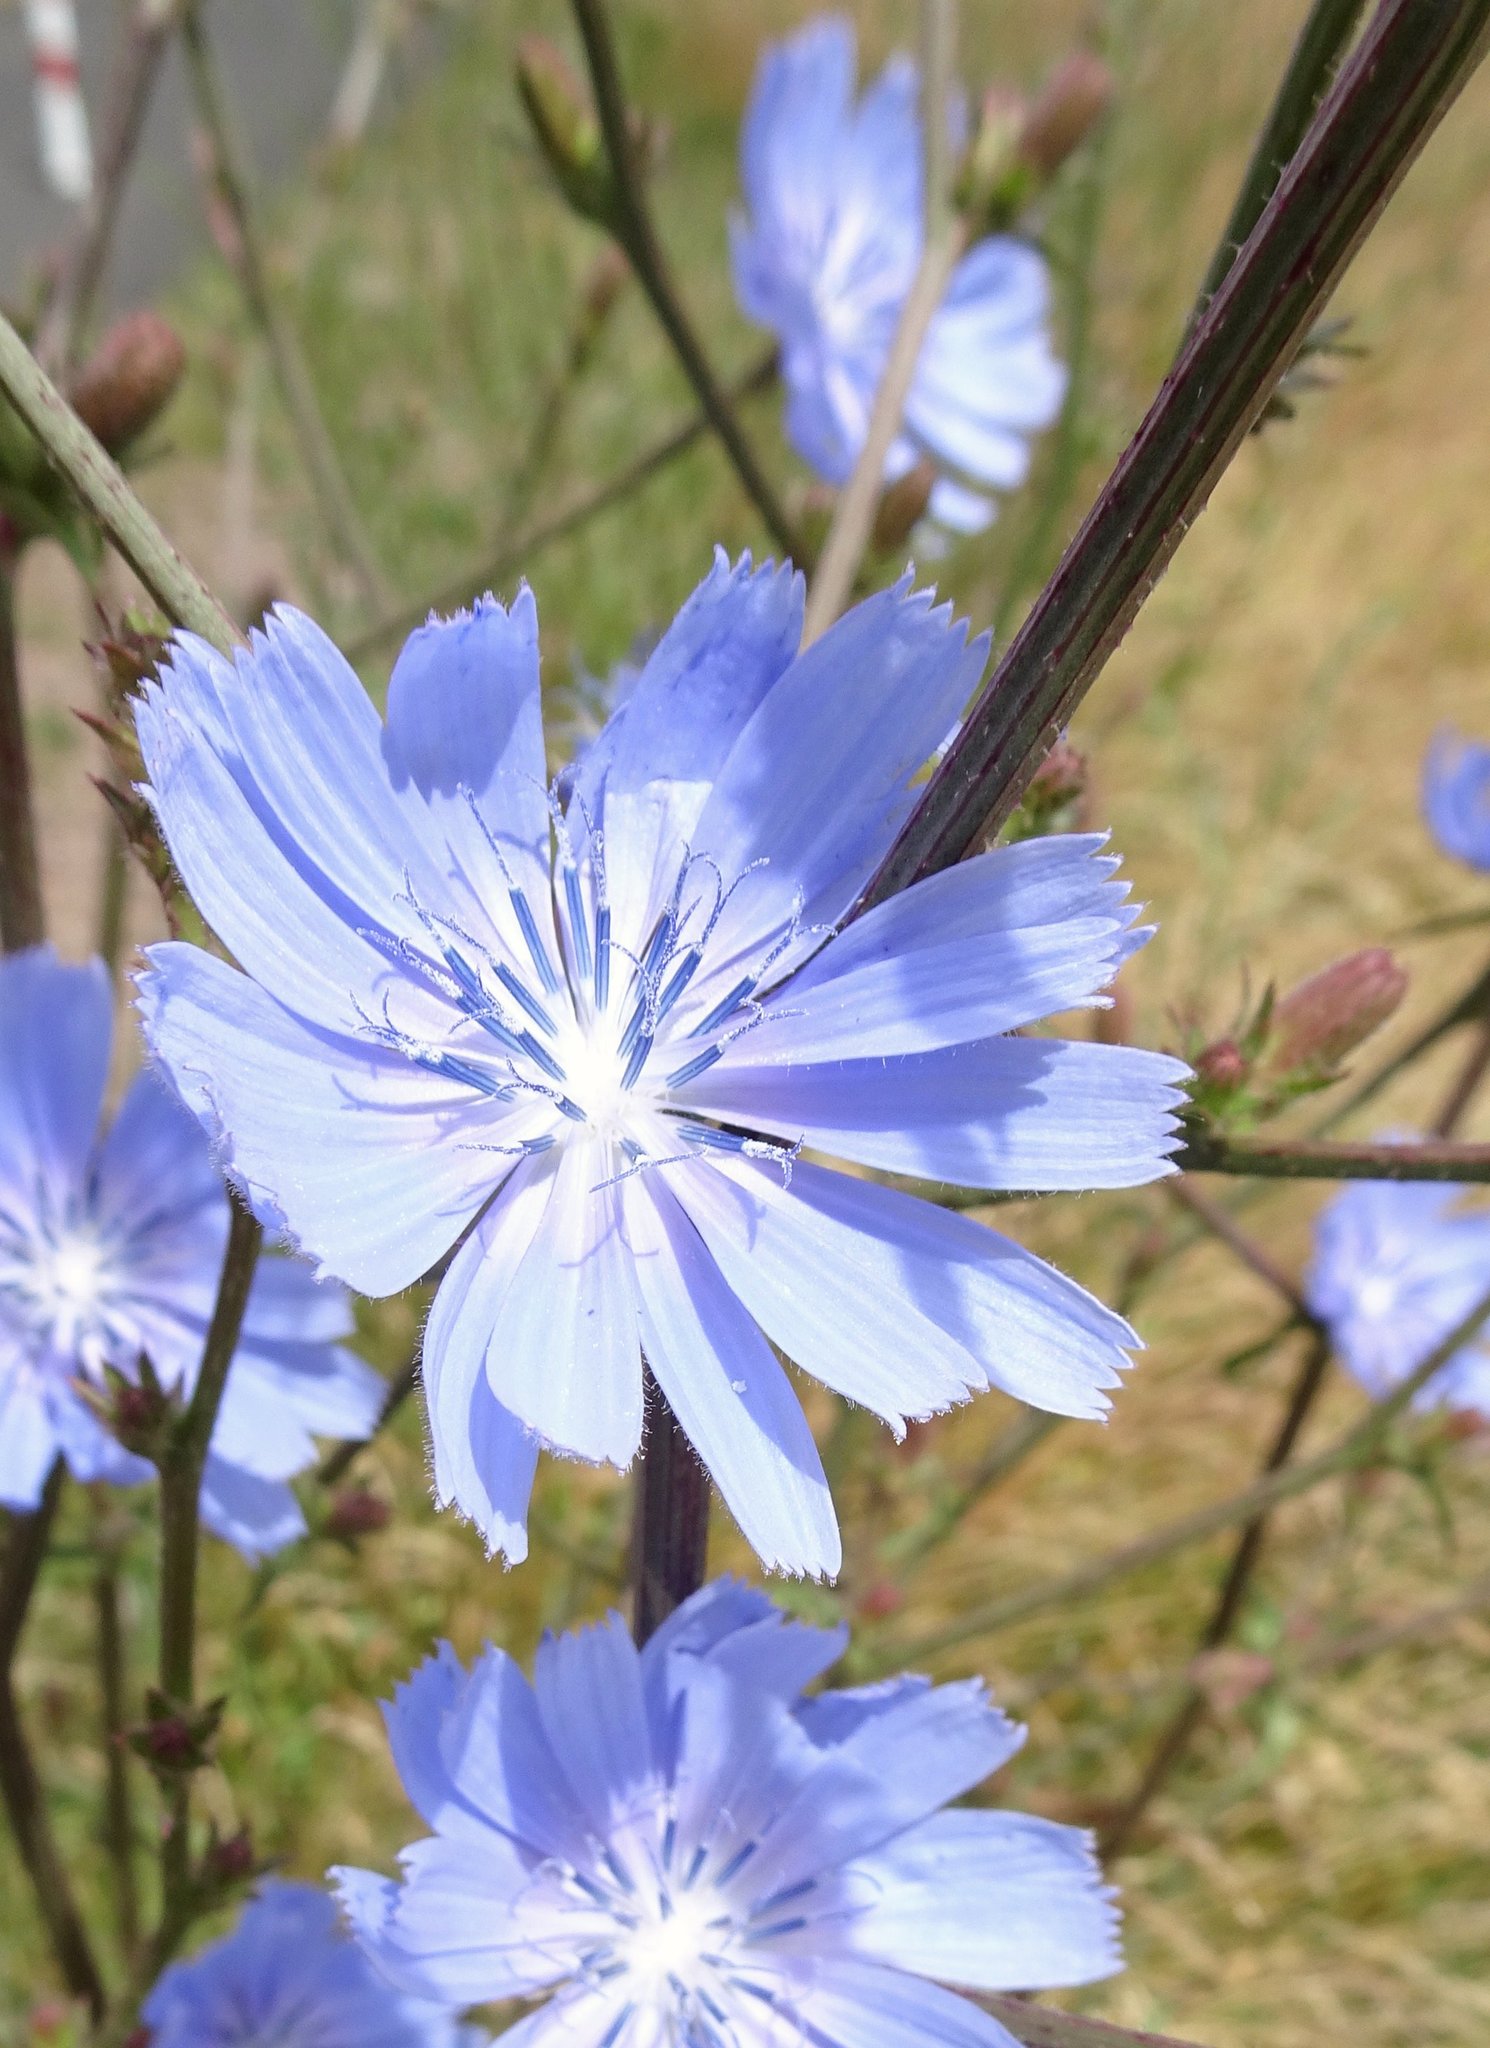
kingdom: Plantae
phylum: Tracheophyta
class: Magnoliopsida
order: Asterales
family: Asteraceae
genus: Cichorium
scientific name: Cichorium intybus
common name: Chicory
